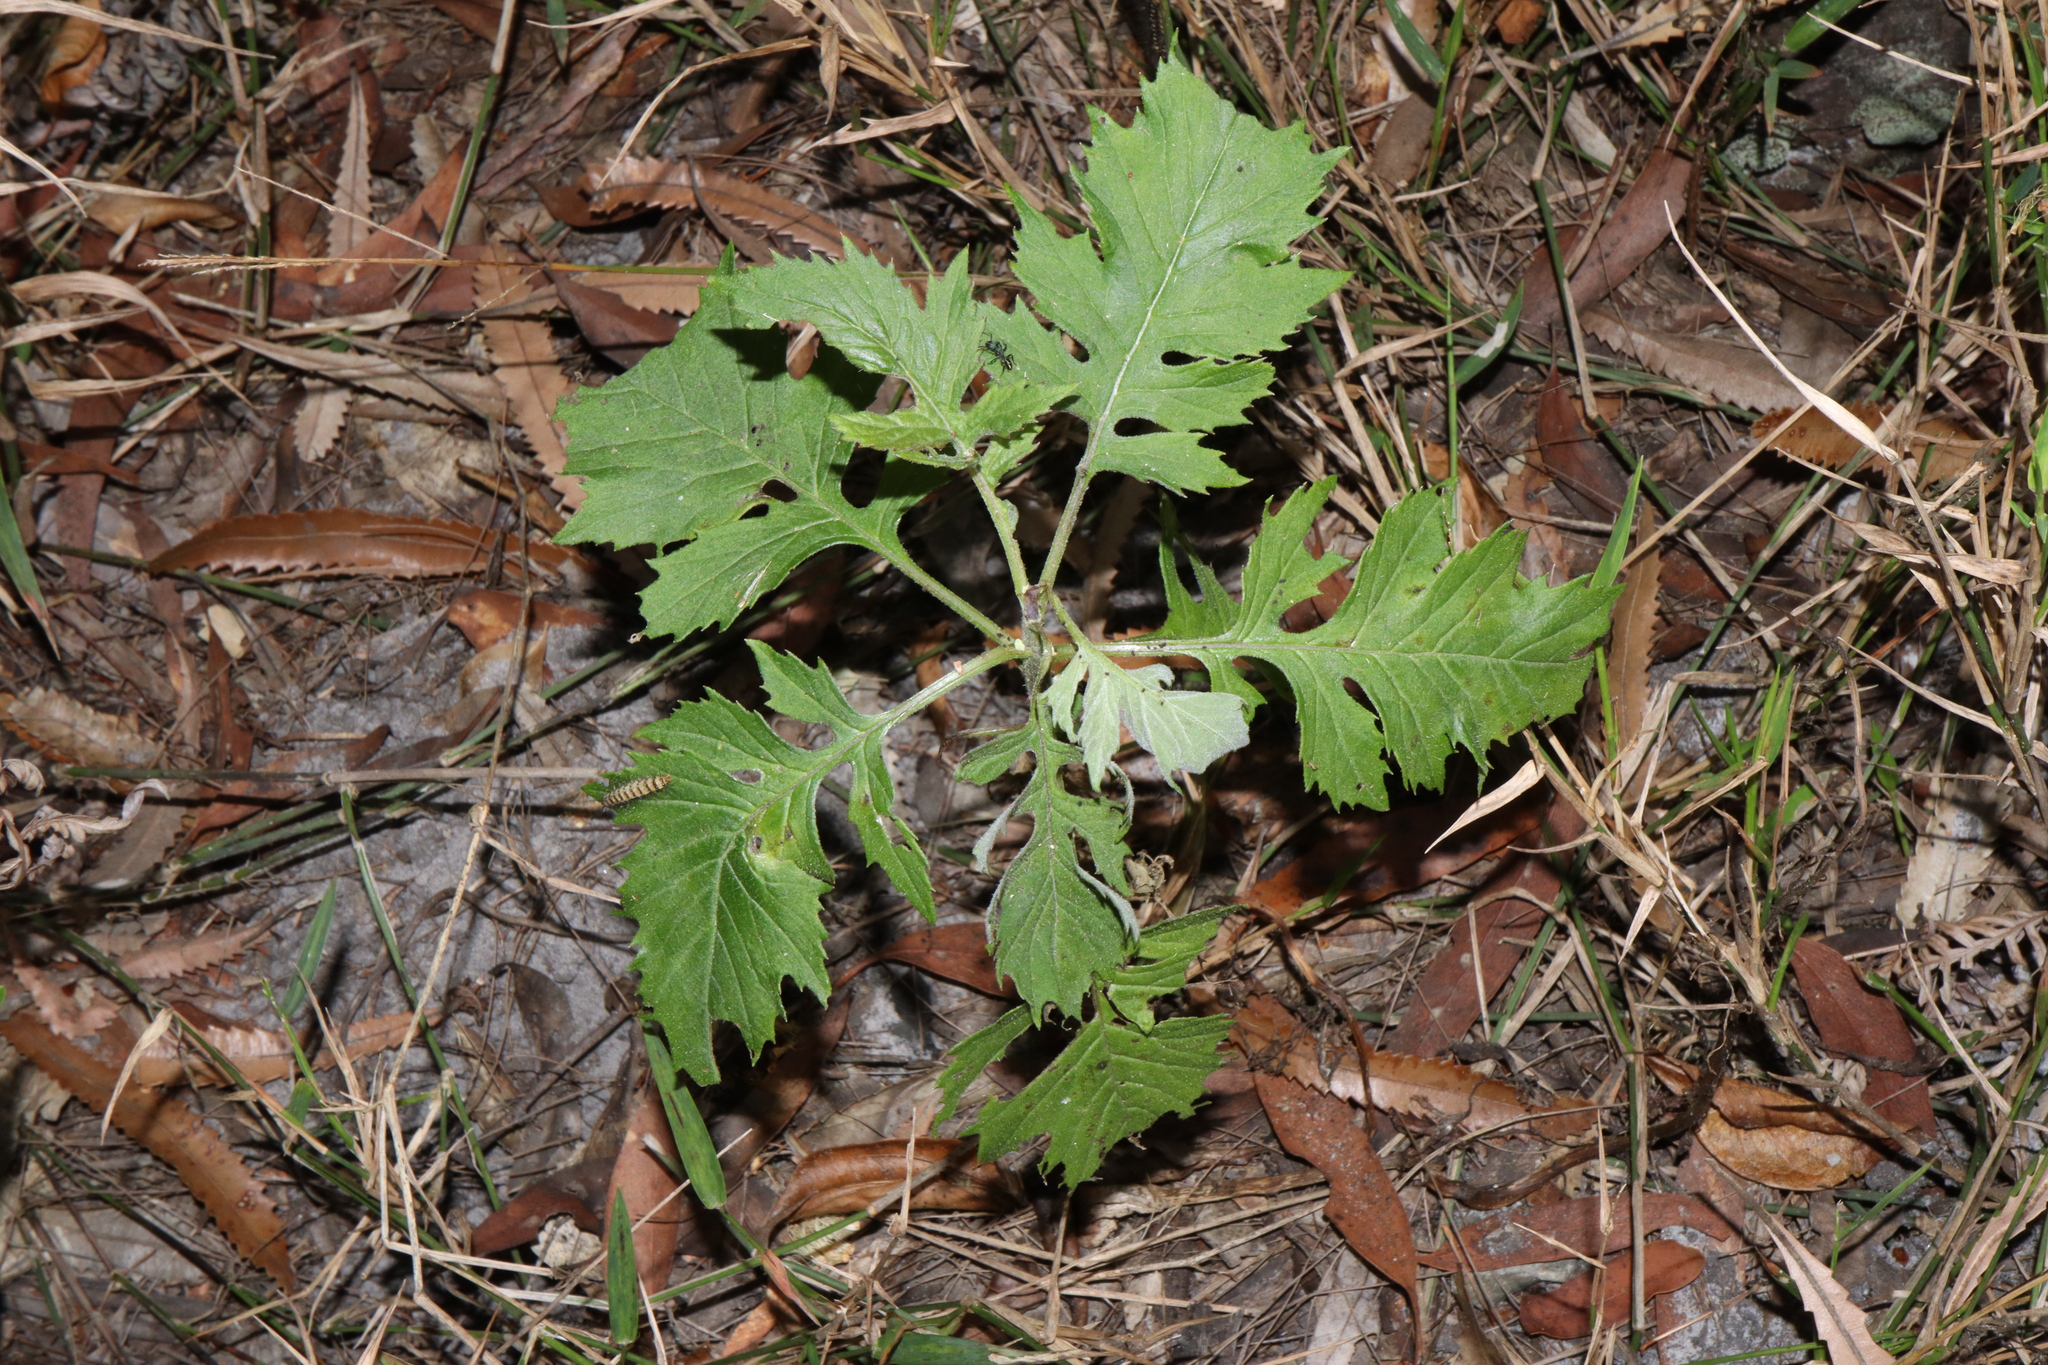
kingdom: Plantae
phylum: Tracheophyta
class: Magnoliopsida
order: Asterales
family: Asteraceae
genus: Erechtites
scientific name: Erechtites valerianifolius
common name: Tropical burnweed
